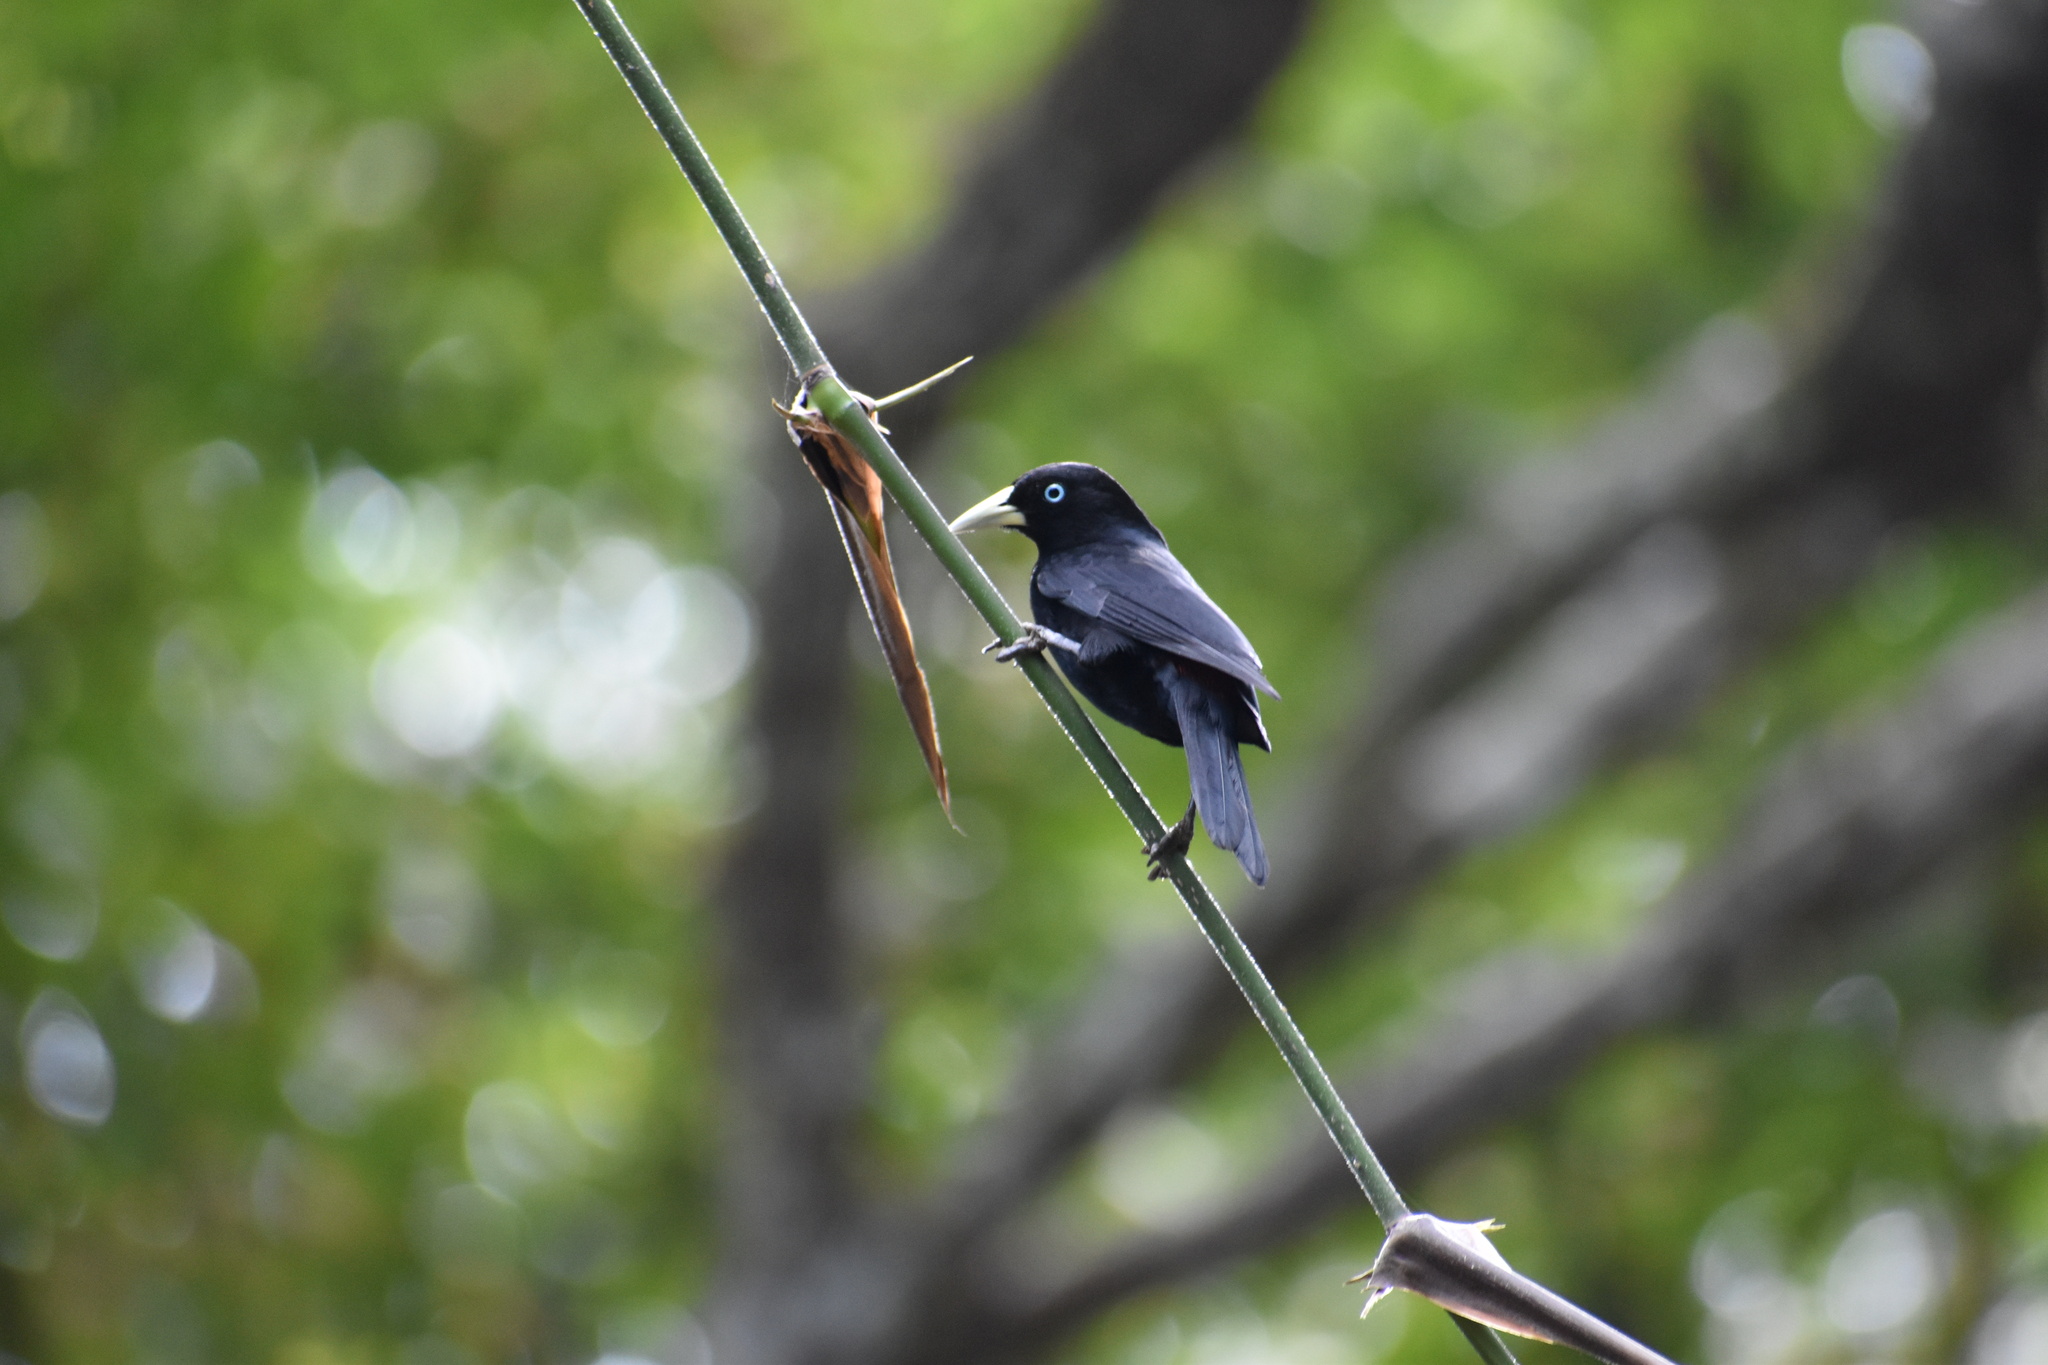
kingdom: Animalia
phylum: Chordata
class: Aves
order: Passeriformes
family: Icteridae
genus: Cacicus
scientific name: Cacicus uropygialis
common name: Scarlet-rumped cacique
